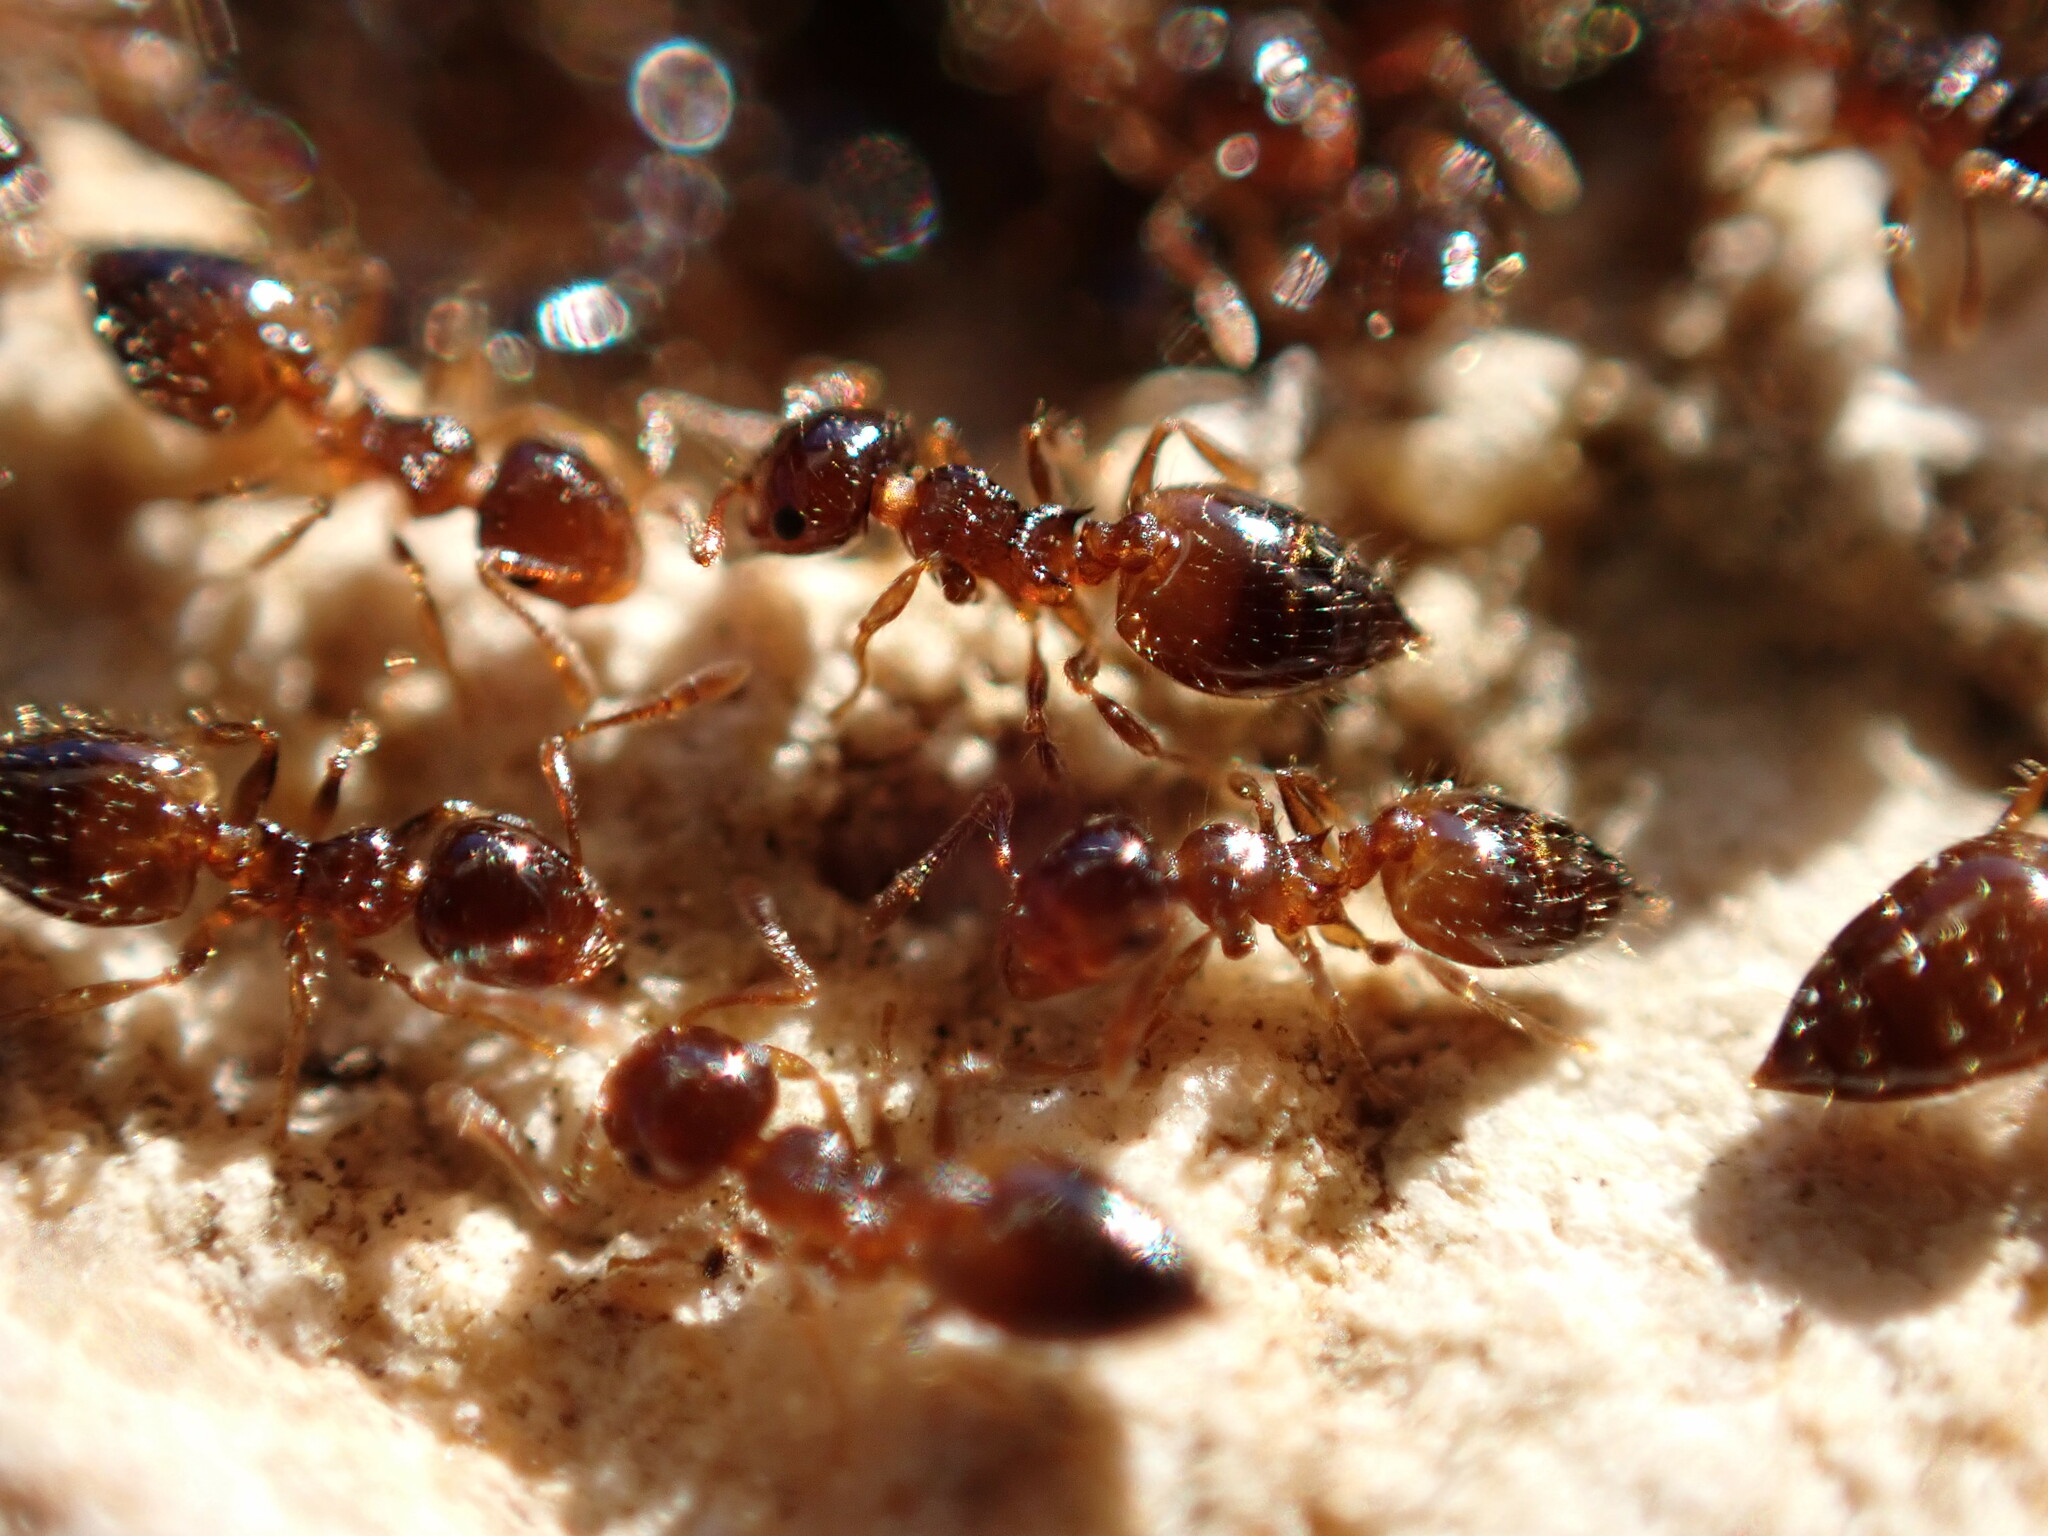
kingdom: Animalia
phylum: Arthropoda
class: Insecta
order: Hymenoptera
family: Formicidae
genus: Crematogaster
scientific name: Crematogaster sordidula
